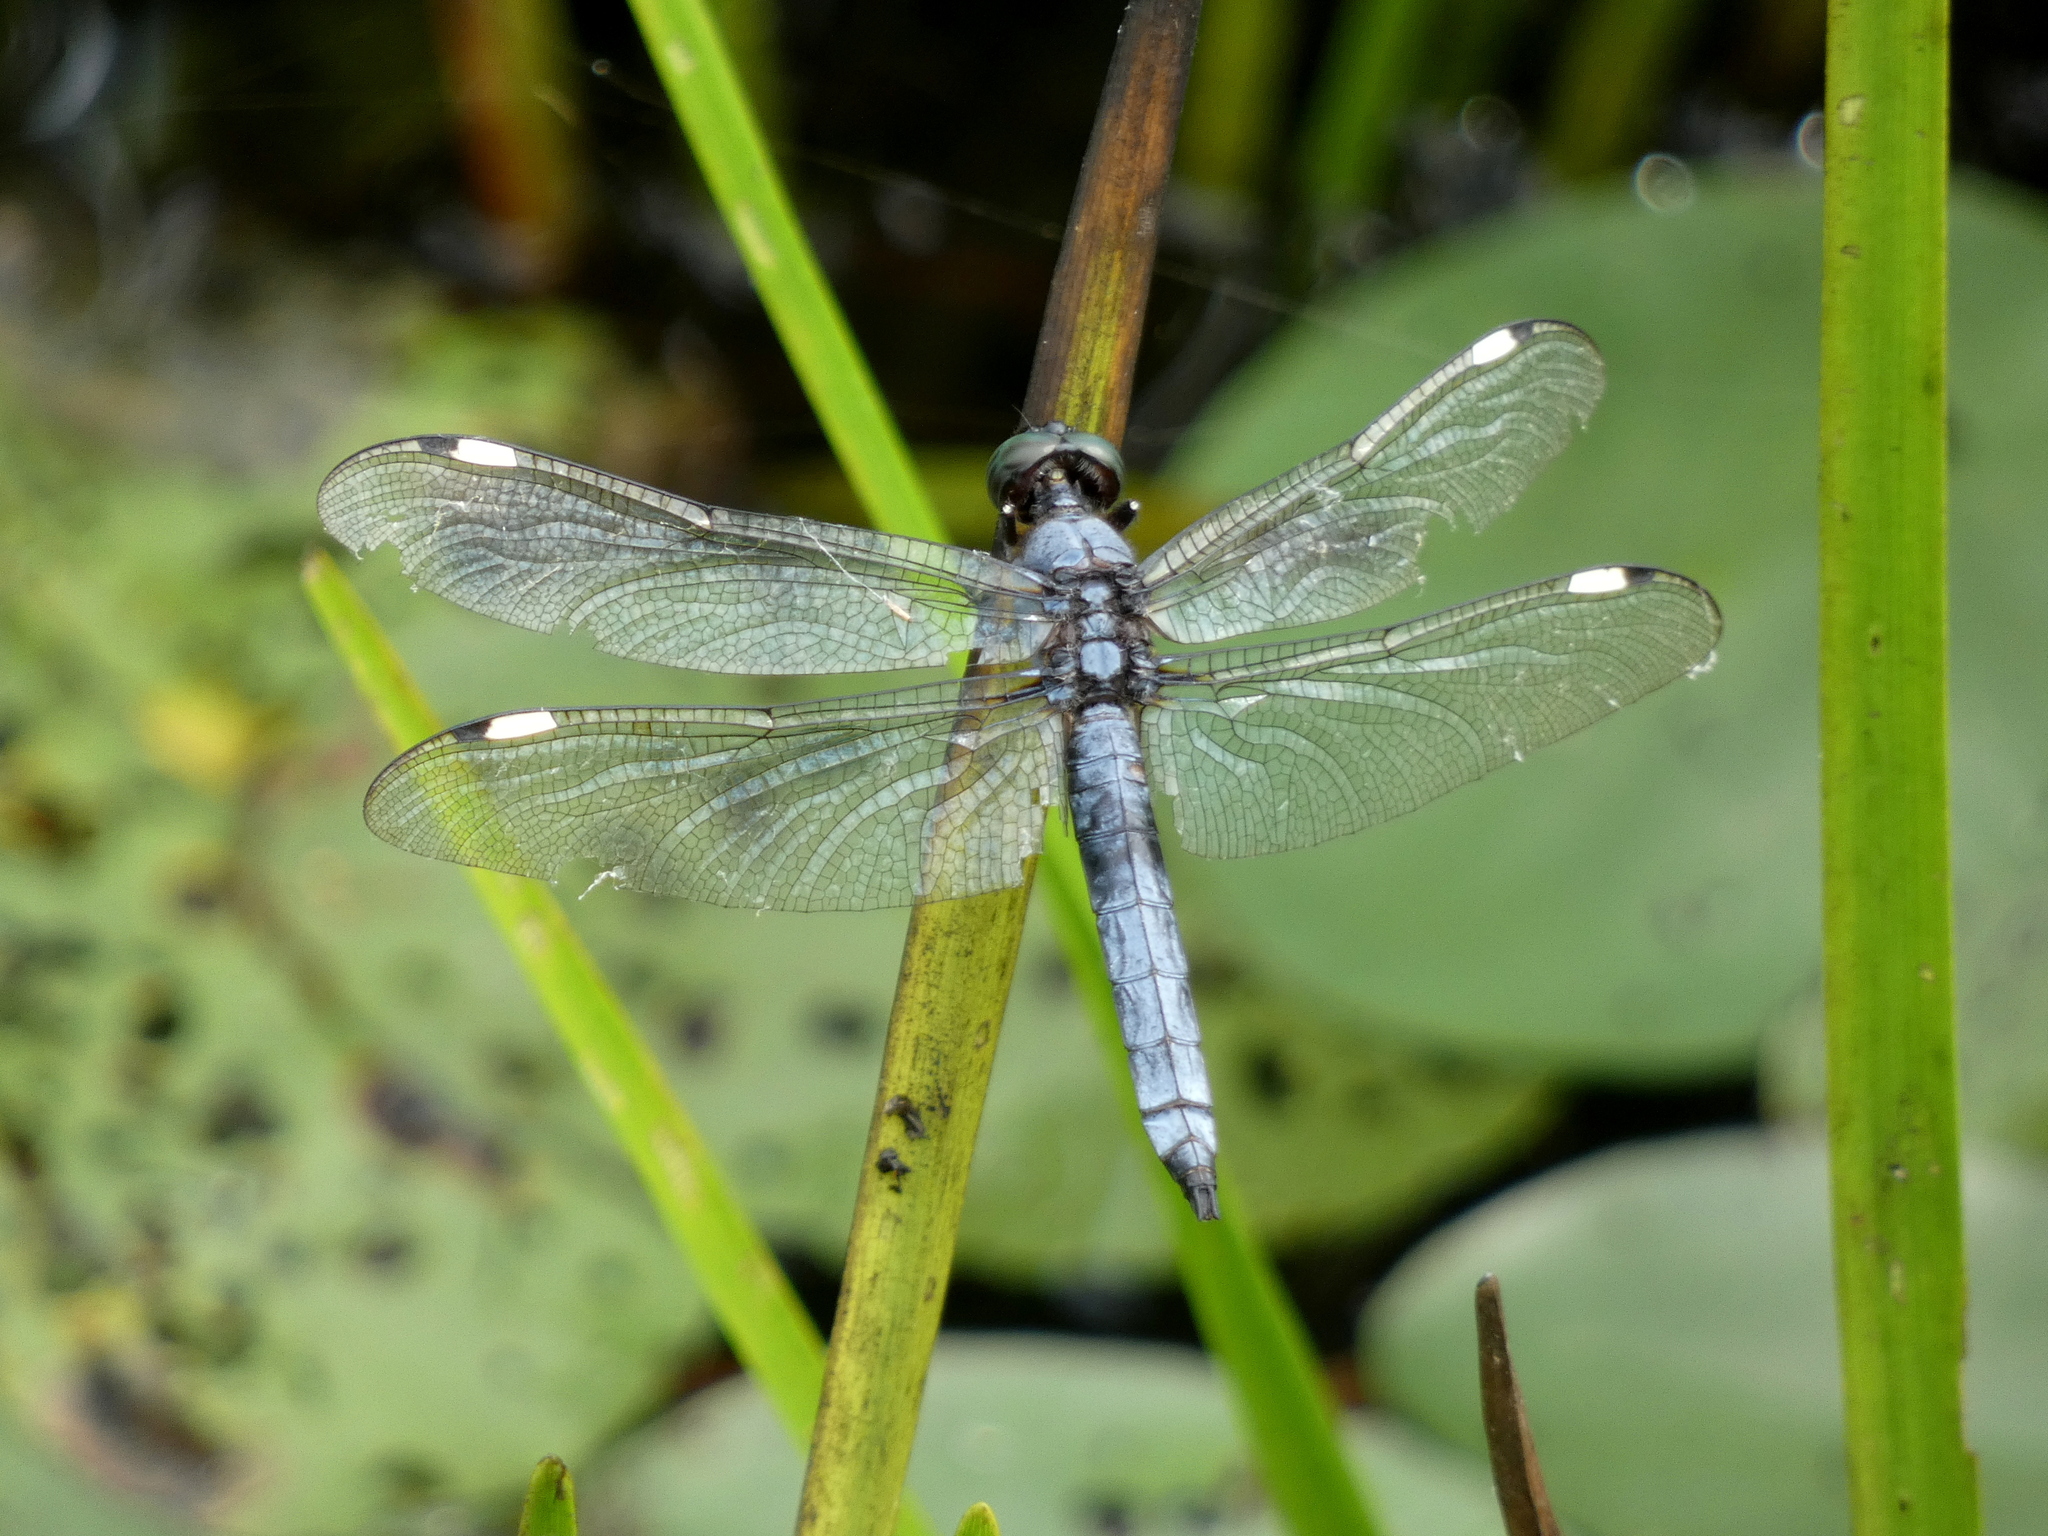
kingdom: Animalia
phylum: Arthropoda
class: Insecta
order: Odonata
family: Libellulidae
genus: Libellula
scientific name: Libellula cyanea
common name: Spangled skimmer
